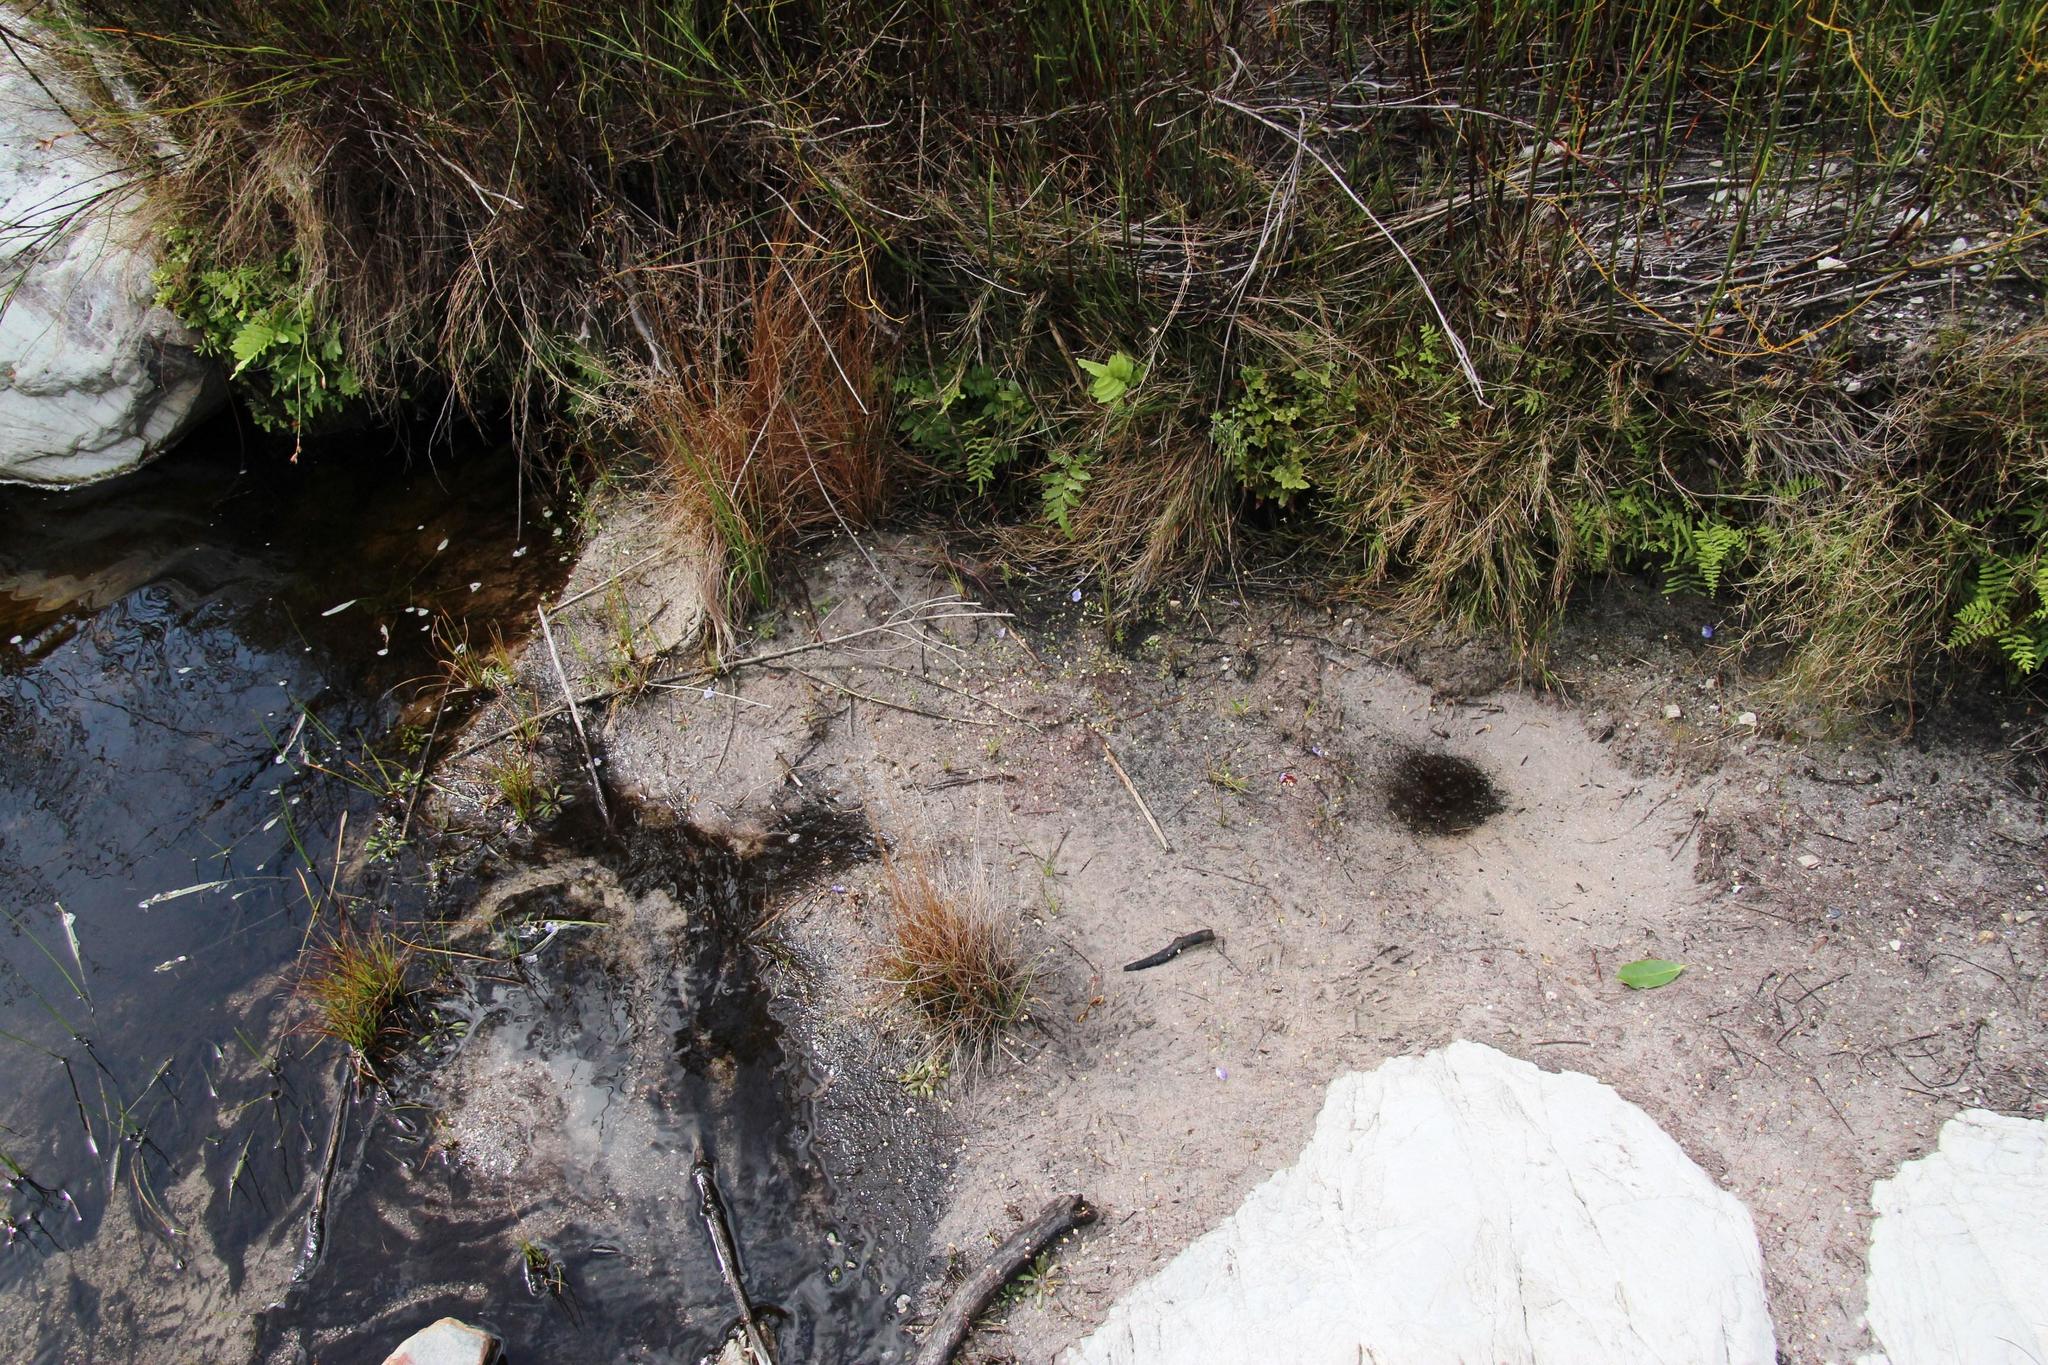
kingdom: Plantae
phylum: Tracheophyta
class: Magnoliopsida
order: Lamiales
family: Lentibulariaceae
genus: Utricularia
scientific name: Utricularia bisquamata
